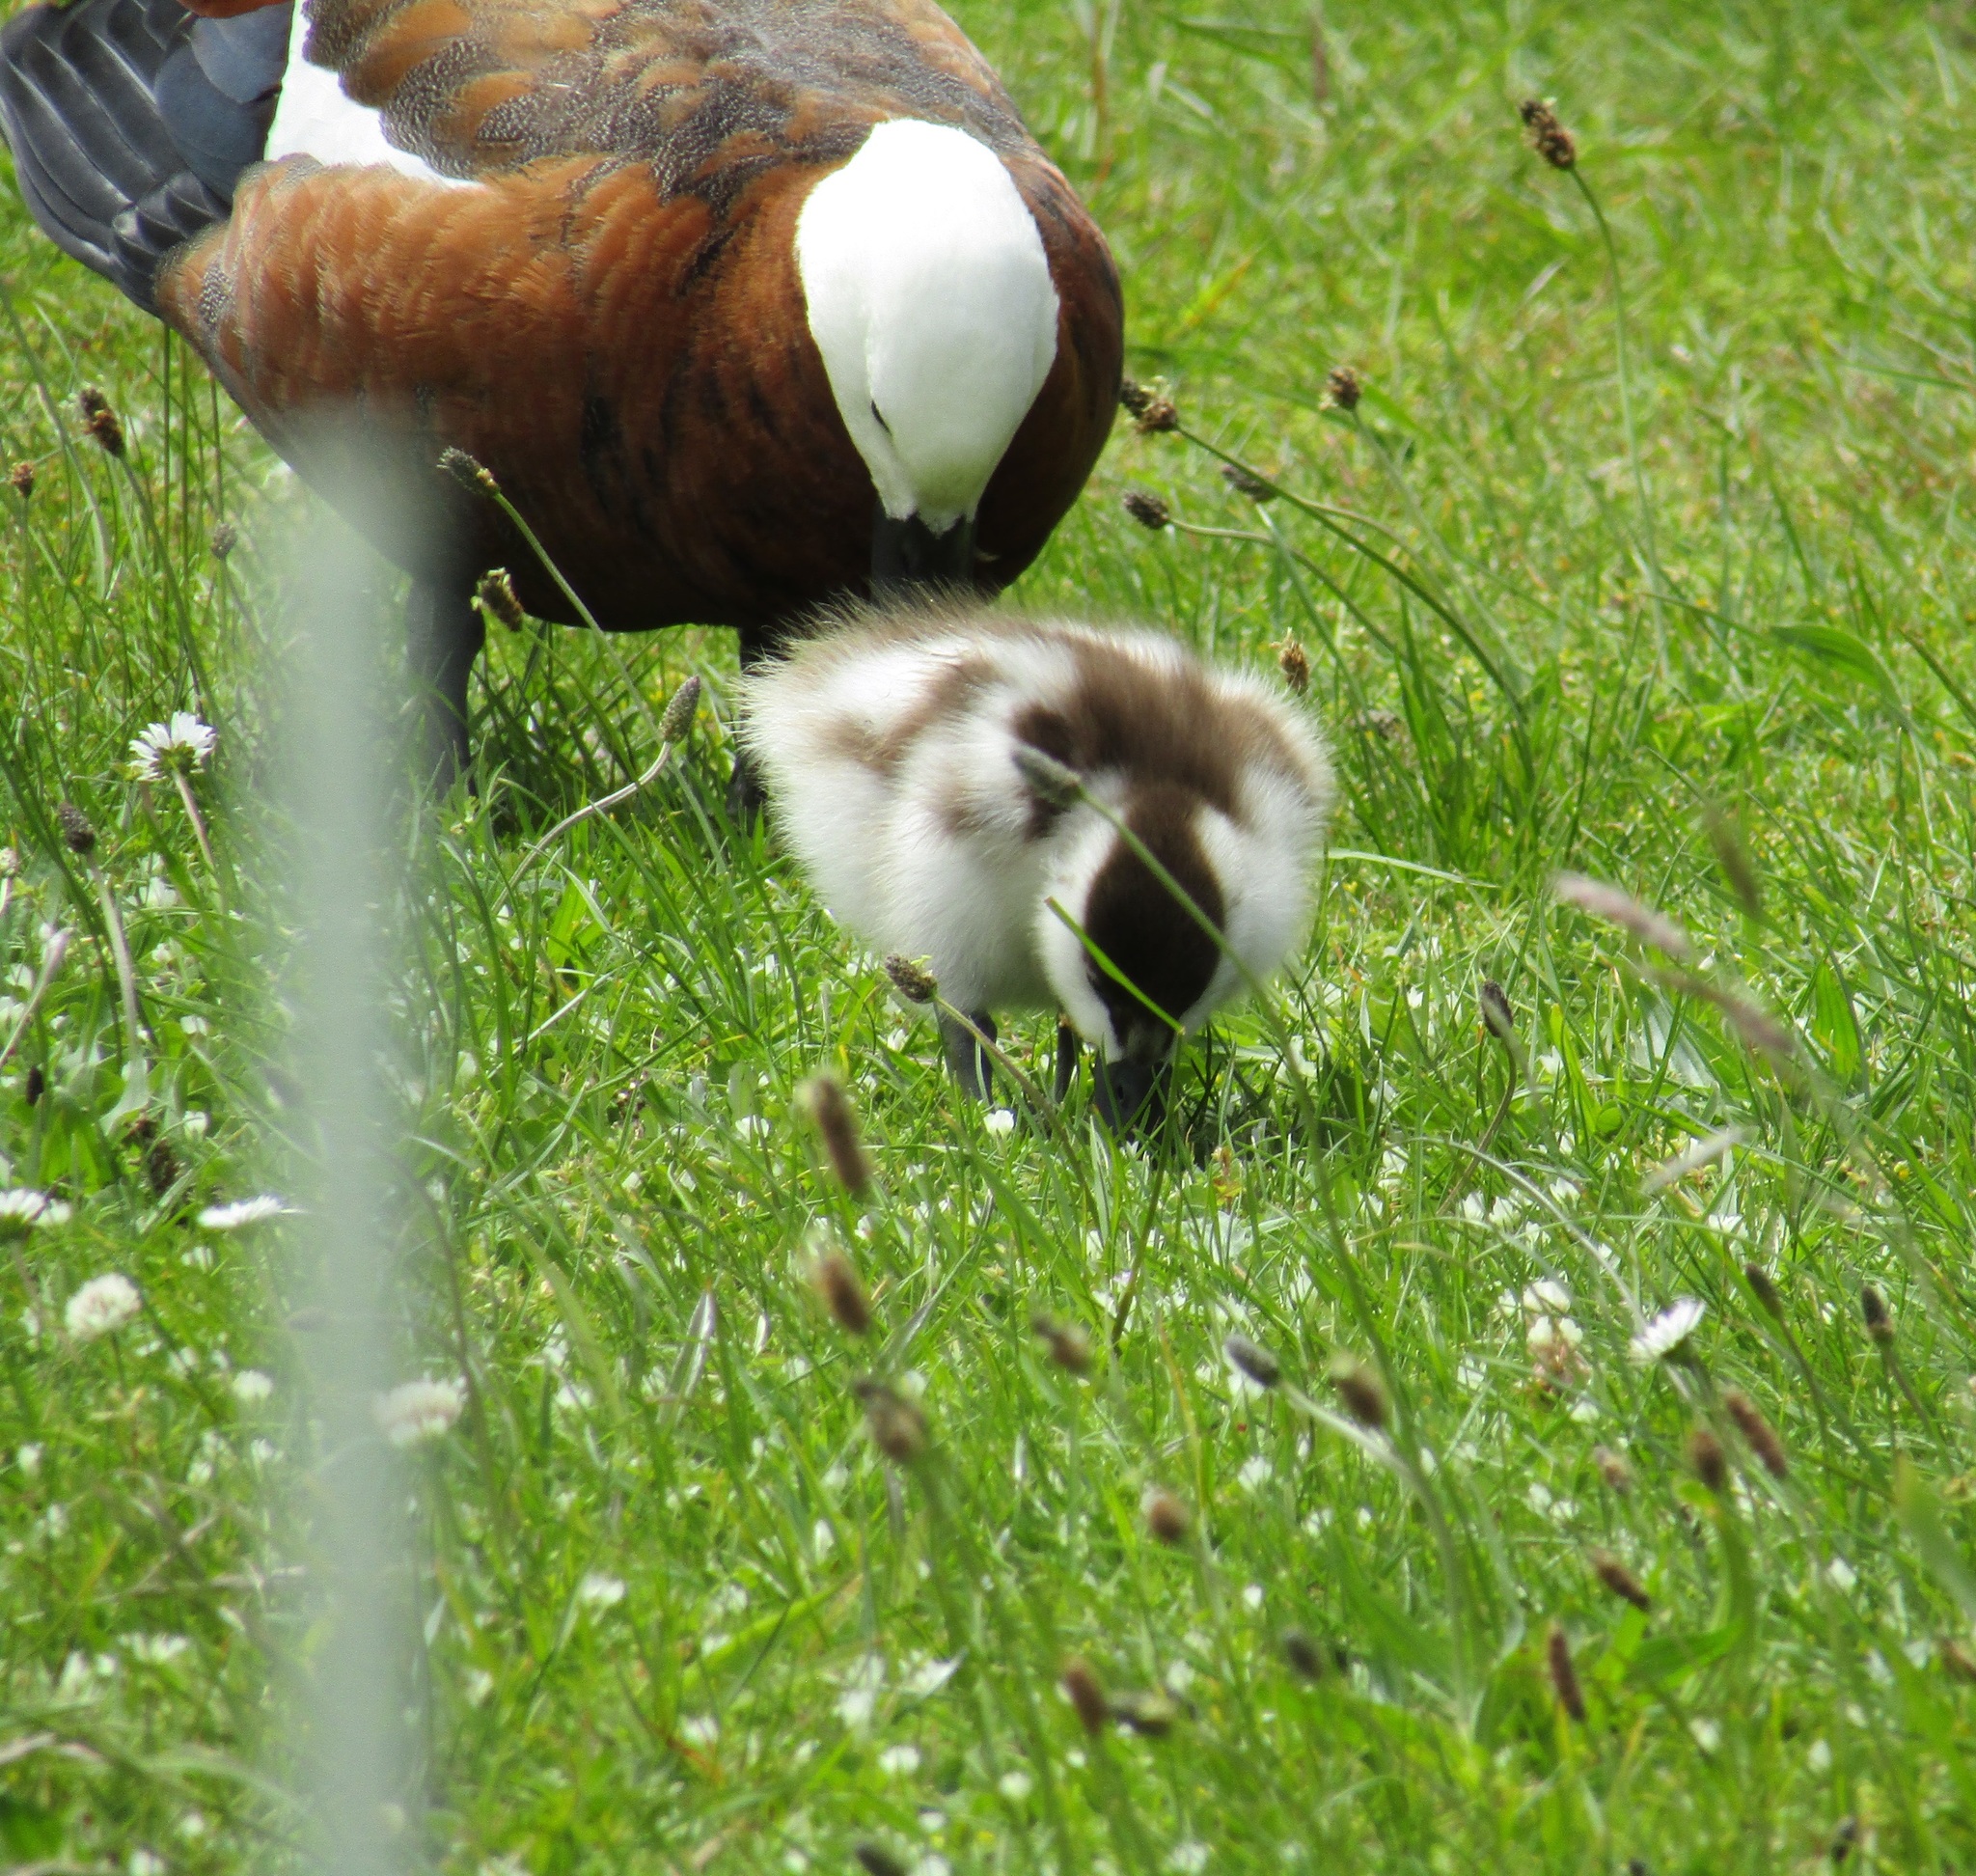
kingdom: Animalia
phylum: Chordata
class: Aves
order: Anseriformes
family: Anatidae
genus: Tadorna
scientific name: Tadorna variegata
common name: Paradise shelduck
